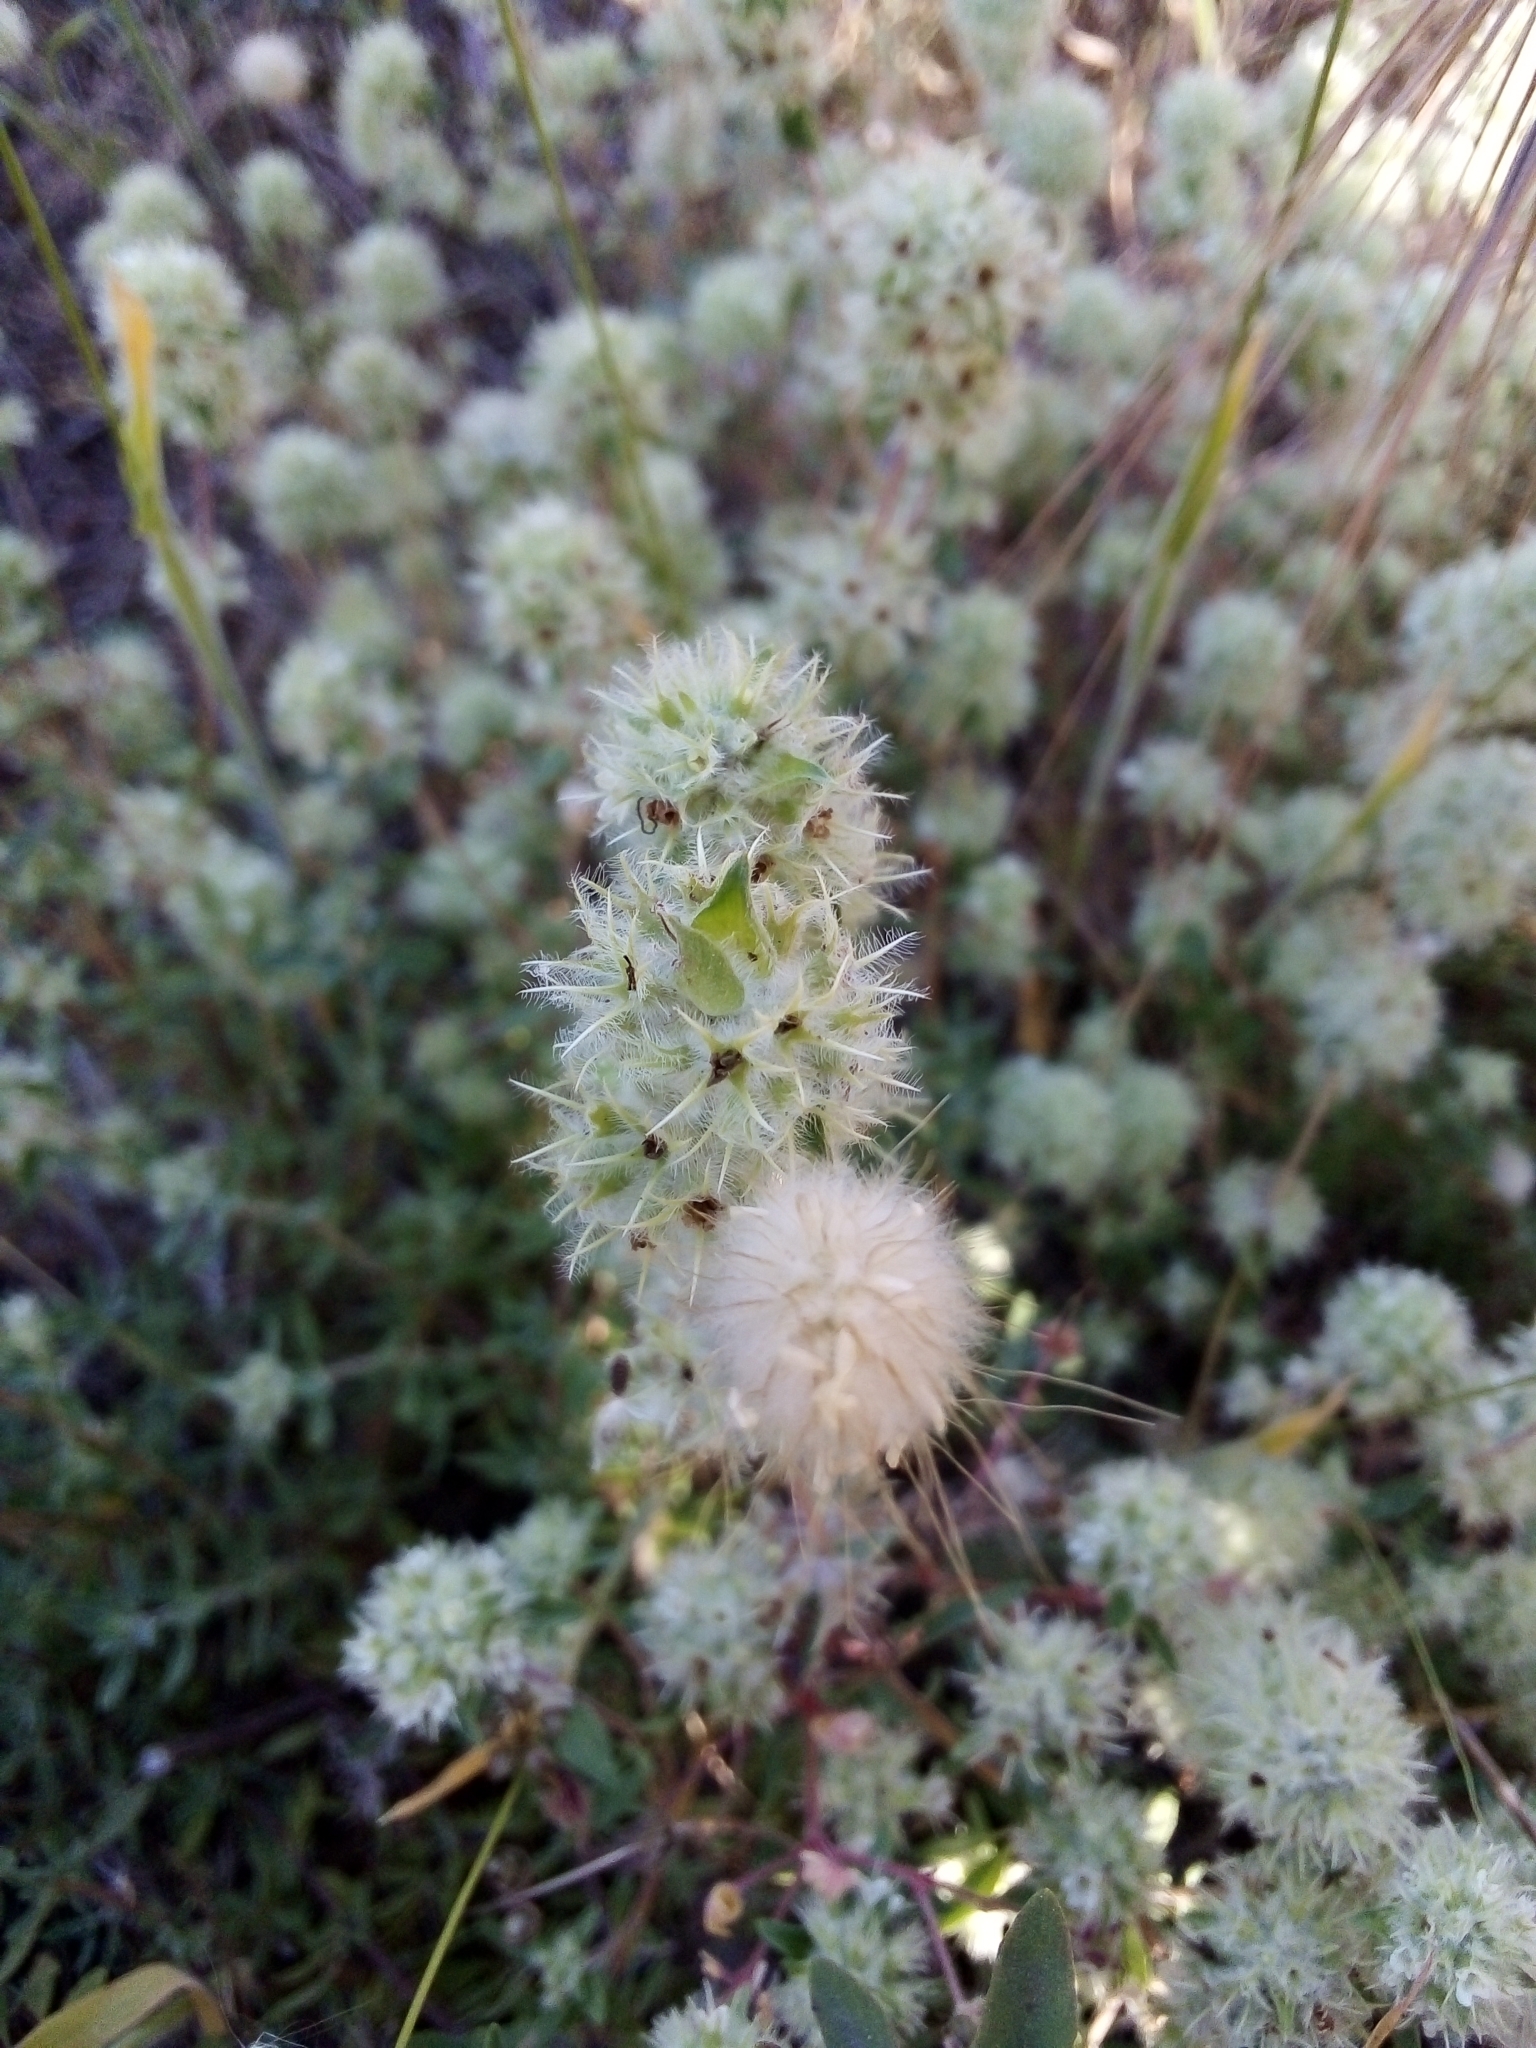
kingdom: Plantae
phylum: Tracheophyta
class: Magnoliopsida
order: Lamiales
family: Lamiaceae
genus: Thymus
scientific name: Thymus mastichina
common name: Mastic thyme
